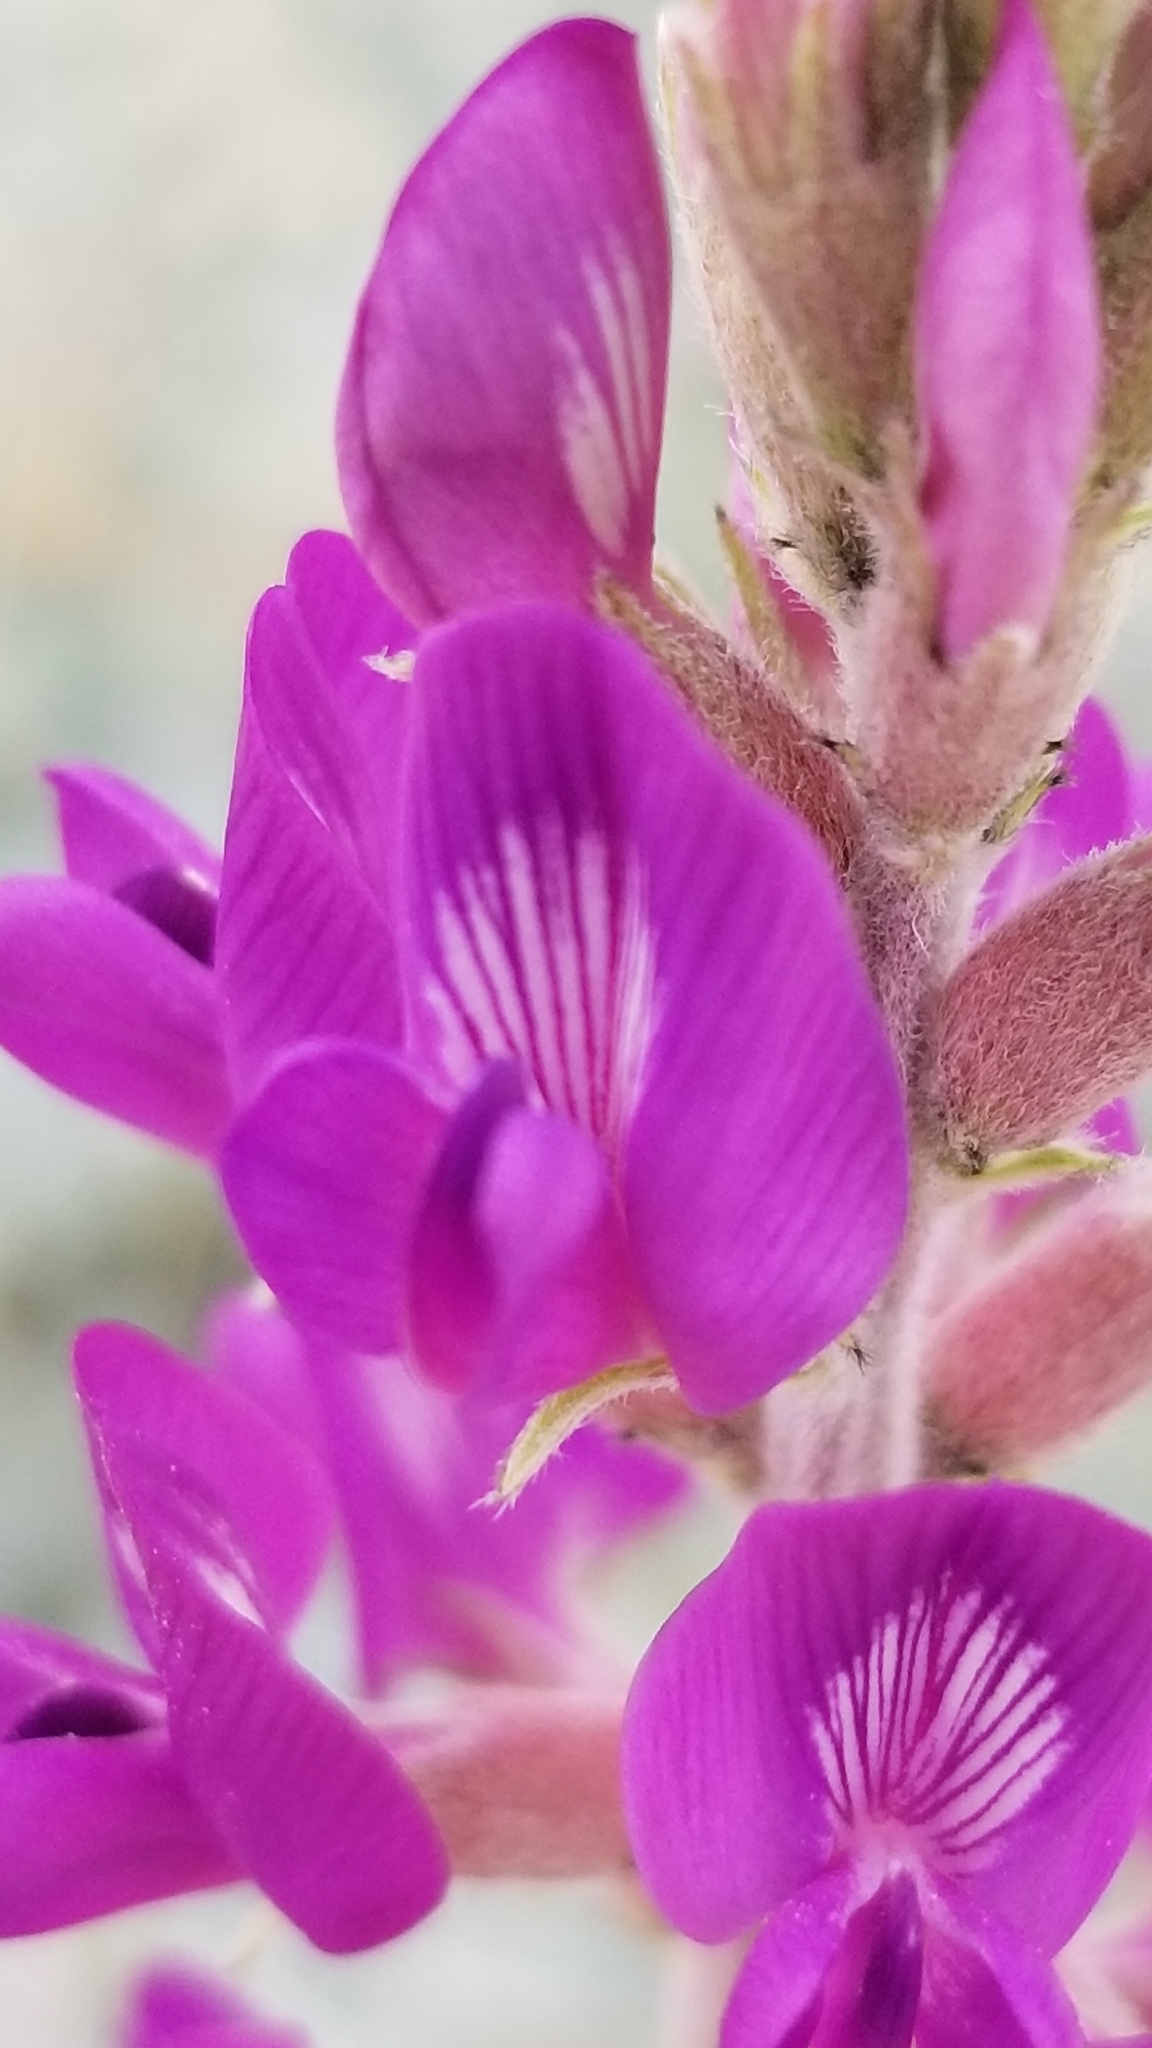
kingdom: Plantae
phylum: Tracheophyta
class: Magnoliopsida
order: Fabales
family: Fabaceae
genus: Astragalus
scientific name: Astragalus lentiginosus
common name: Freckled milkvetch
